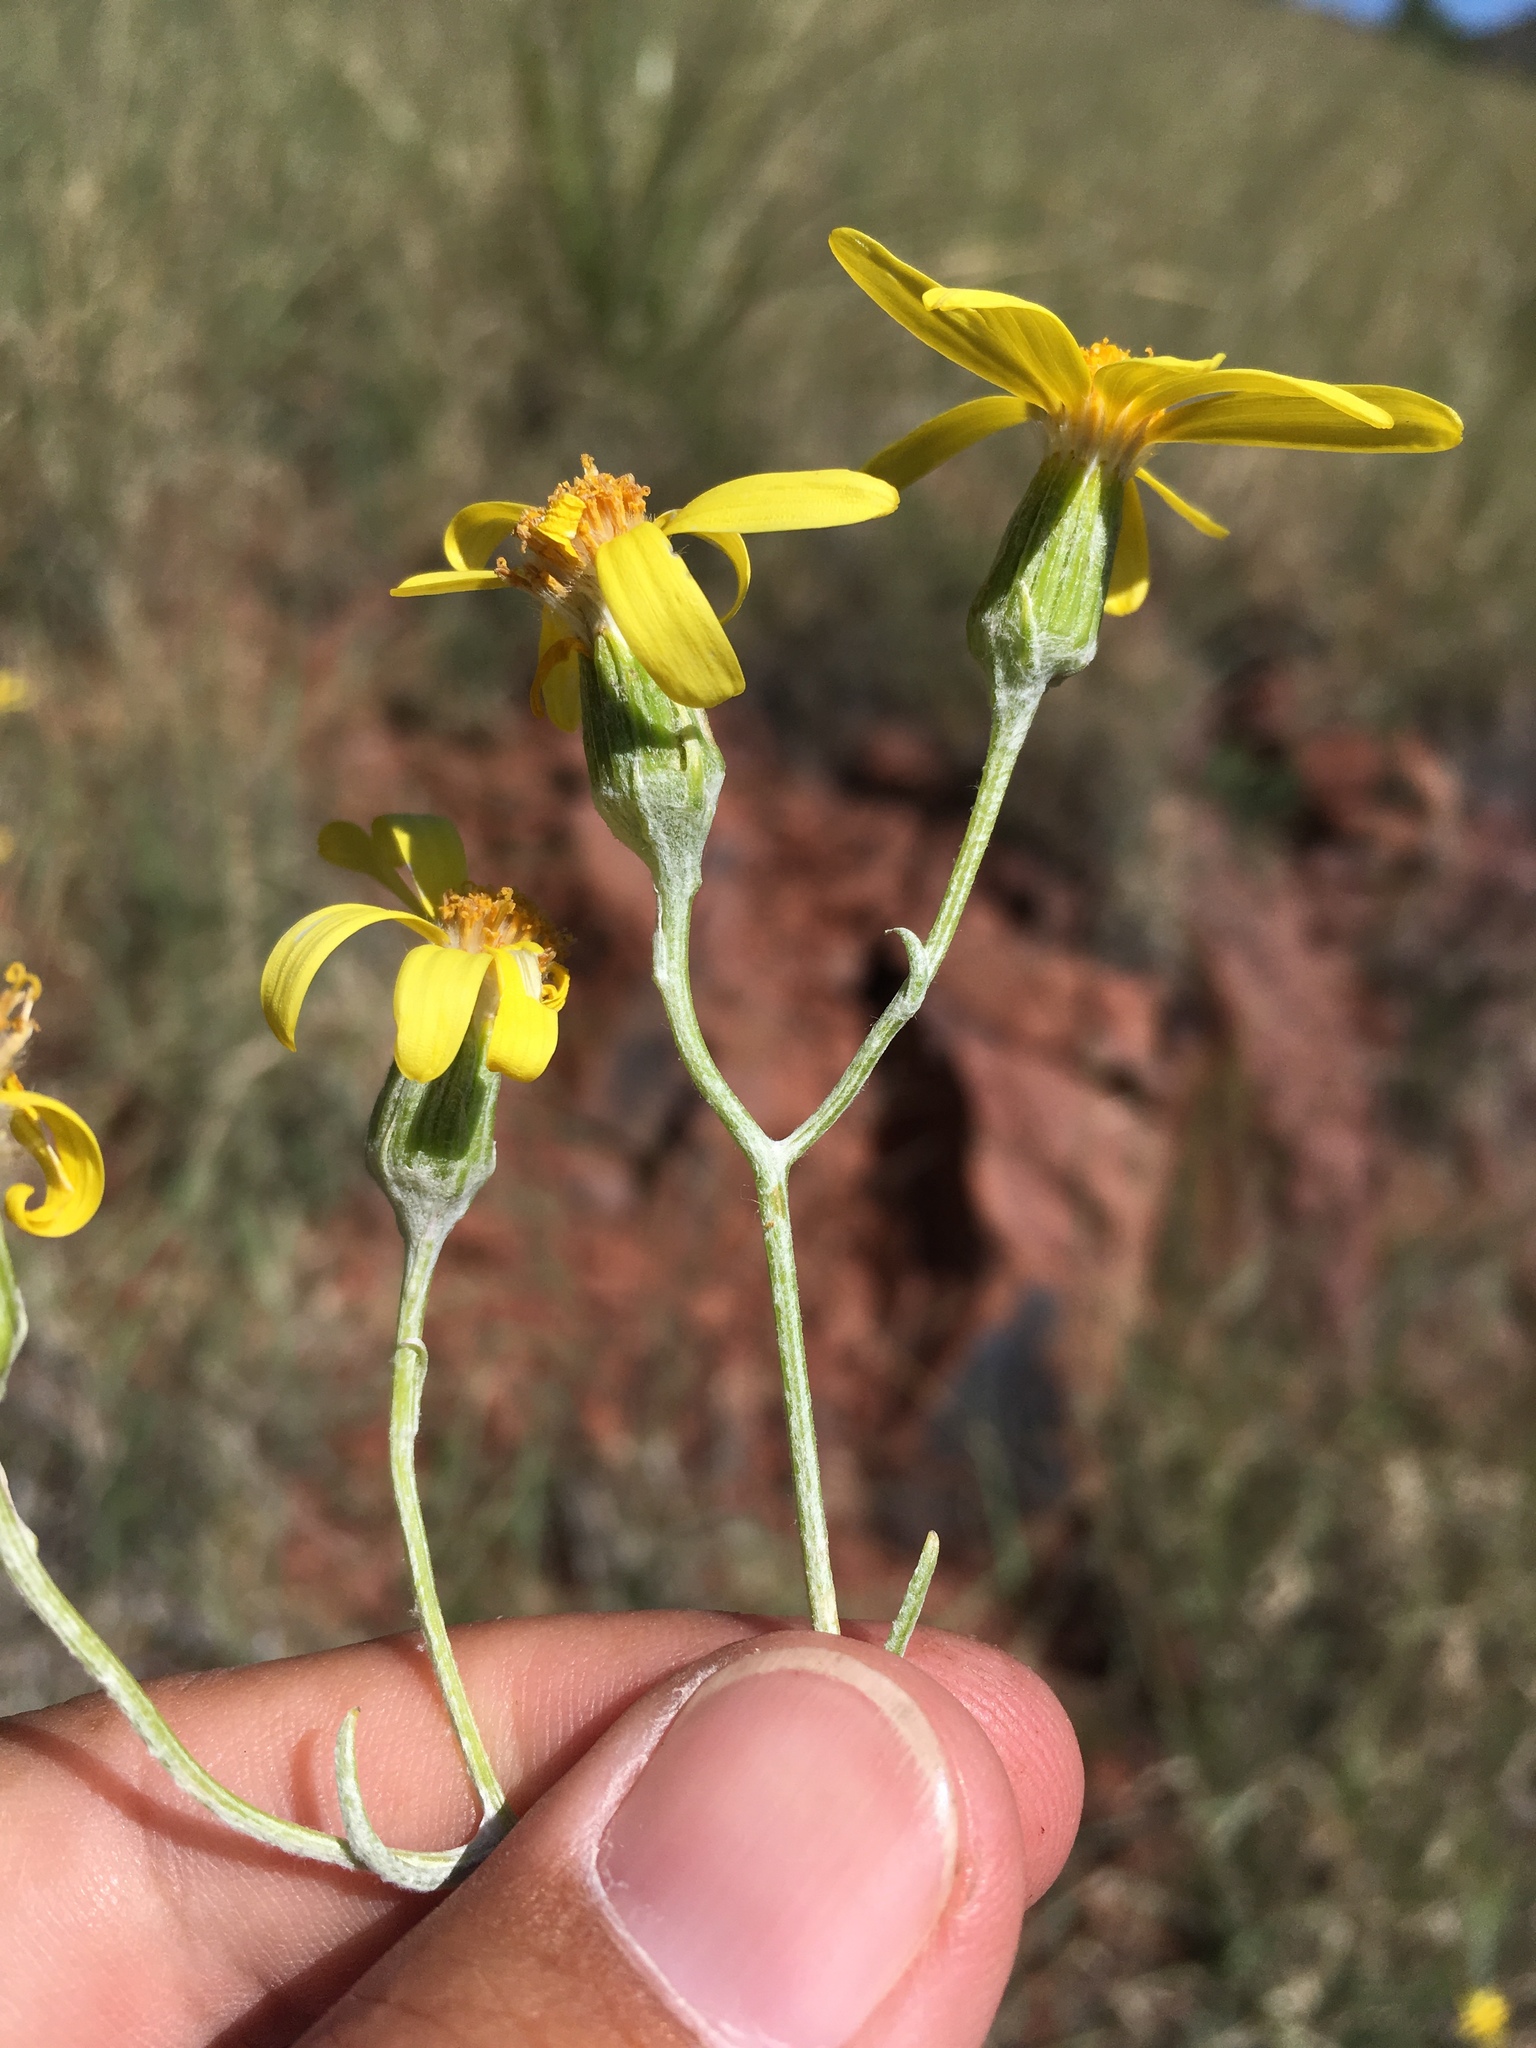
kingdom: Plantae
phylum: Tracheophyta
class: Magnoliopsida
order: Asterales
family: Asteraceae
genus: Senecio
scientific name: Senecio flaccidus
